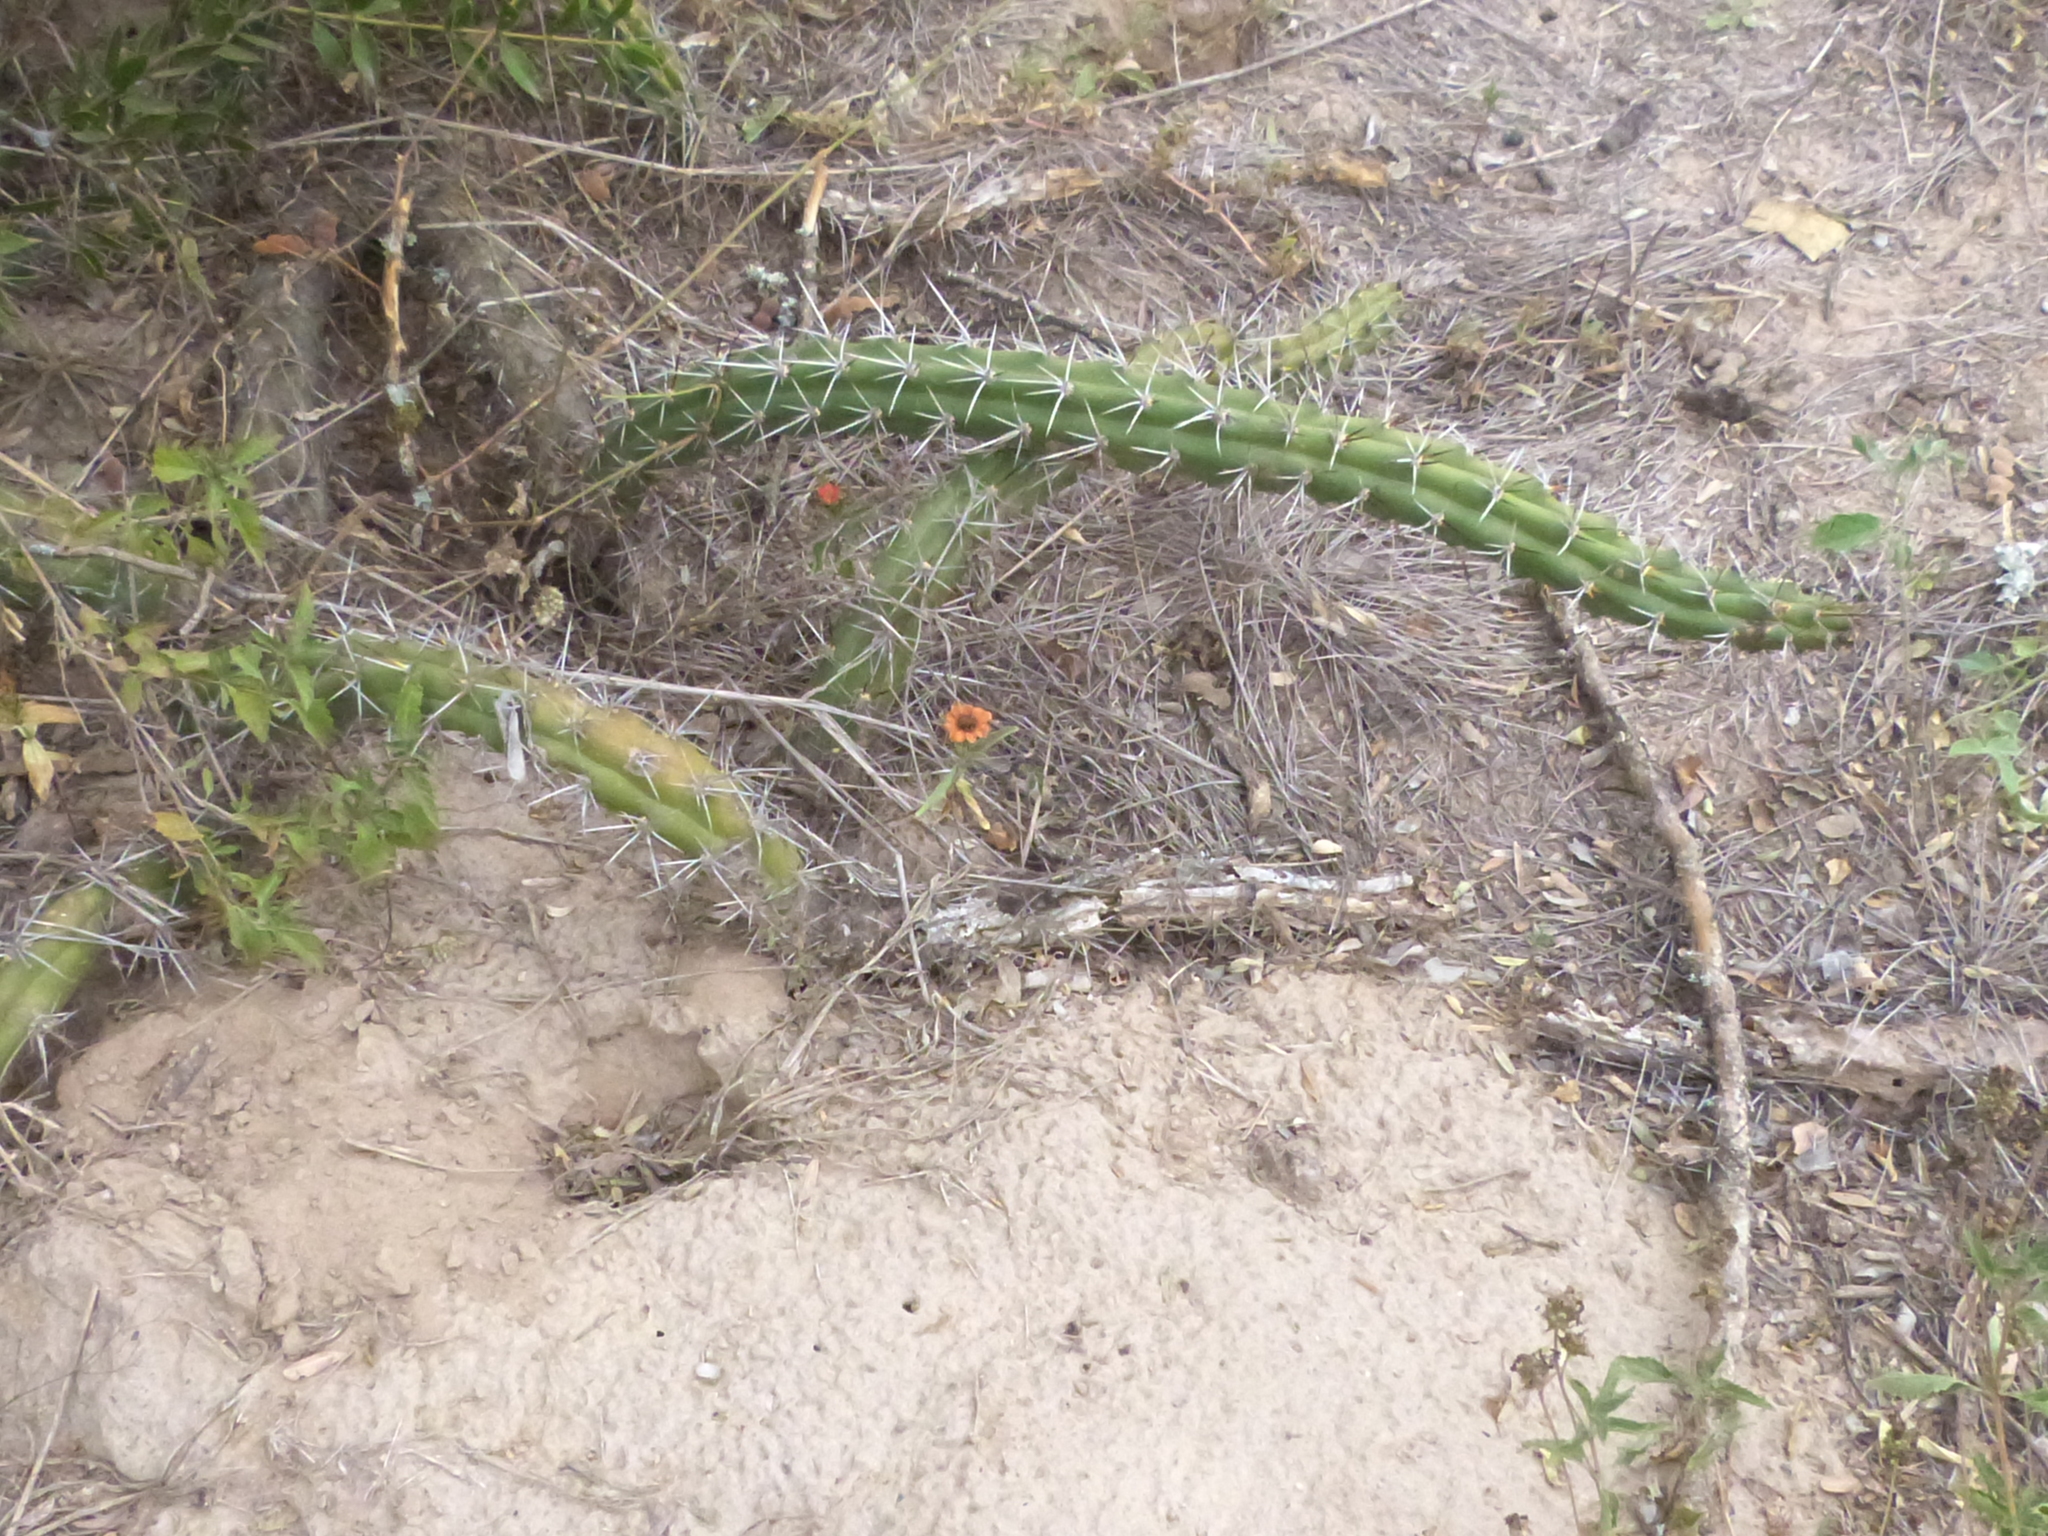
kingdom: Plantae
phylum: Tracheophyta
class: Magnoliopsida
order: Caryophyllales
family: Cactaceae
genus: Harrisia
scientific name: Harrisia pomanensis
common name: Midnight-lady
